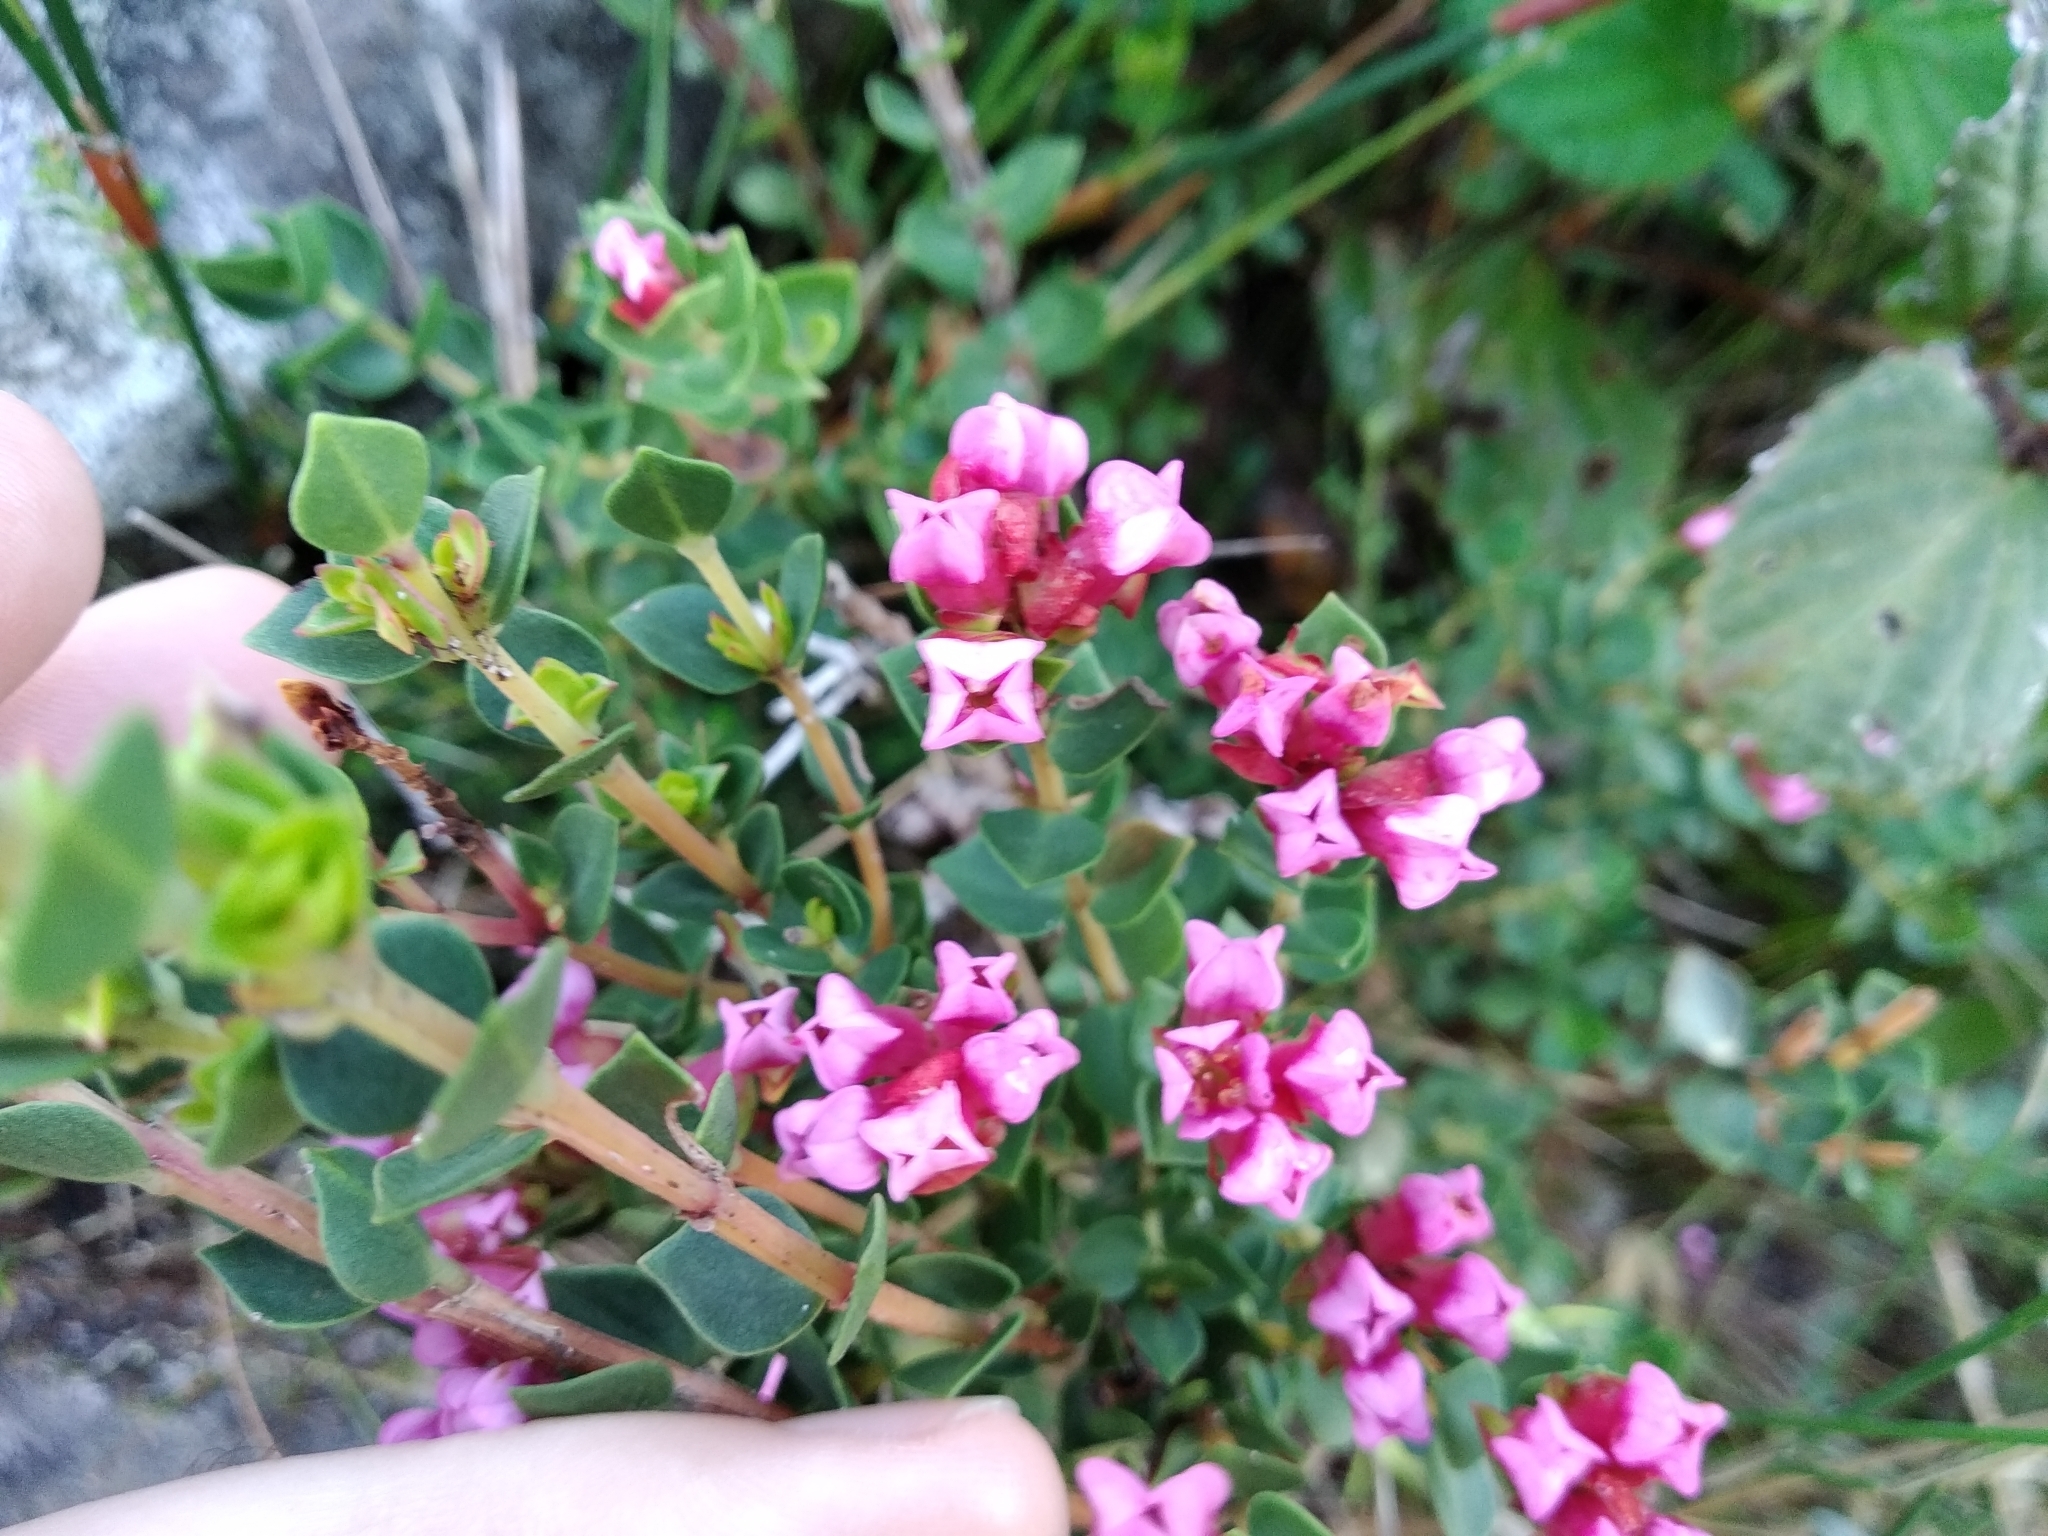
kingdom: Plantae
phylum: Tracheophyta
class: Magnoliopsida
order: Myrtales
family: Penaeaceae
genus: Brachysiphon
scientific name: Brachysiphon fucatus
